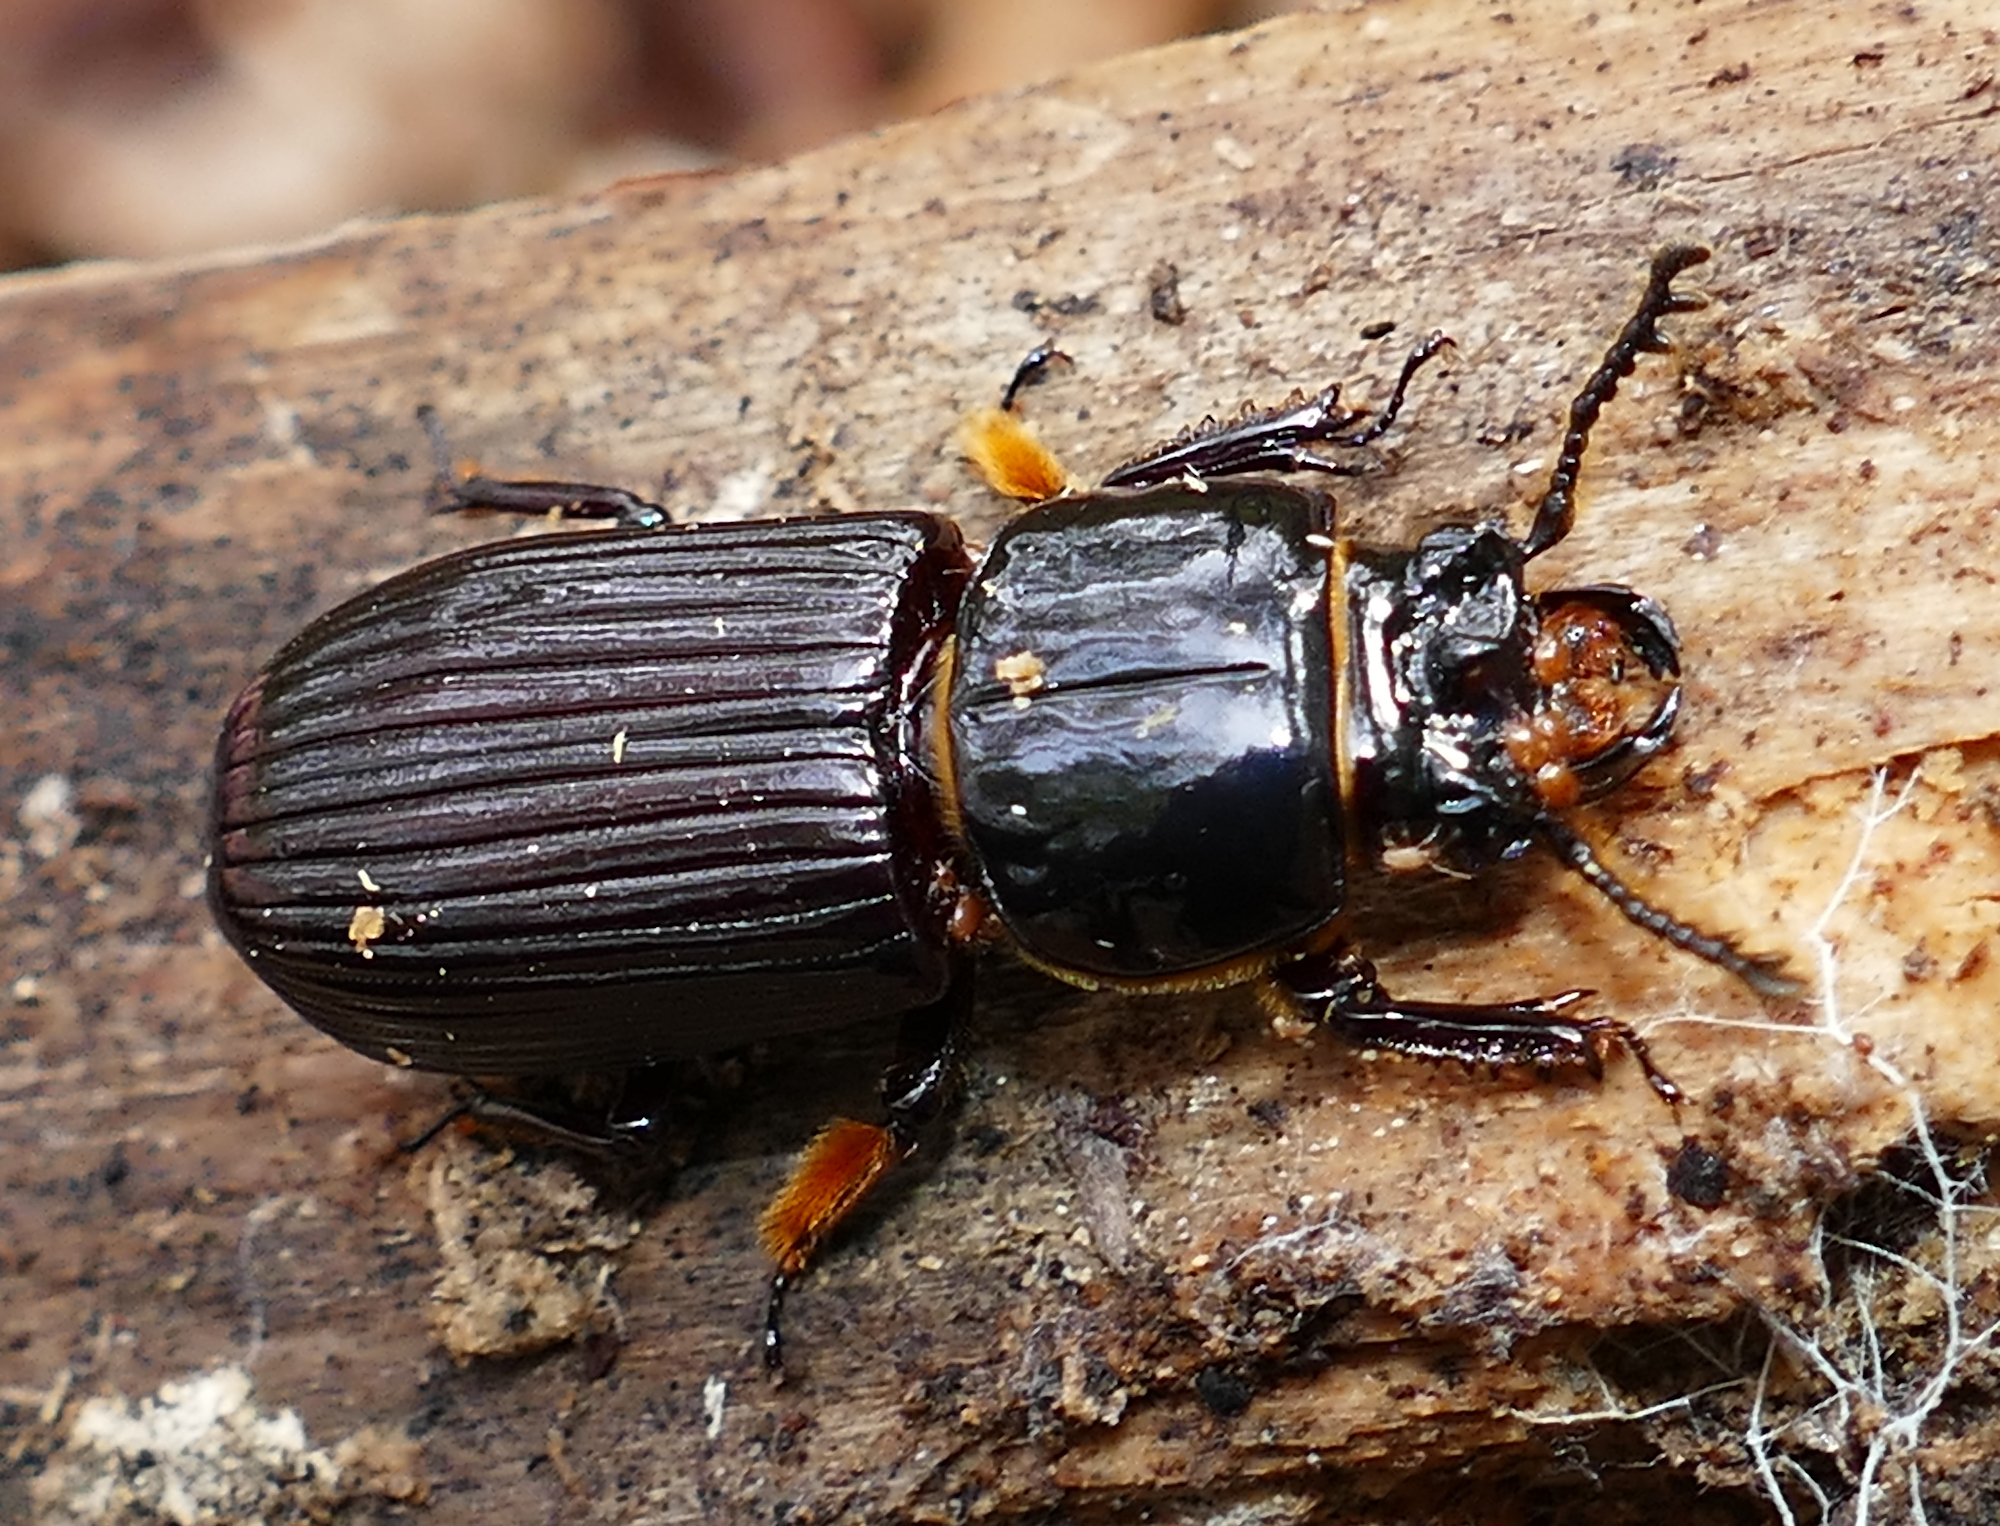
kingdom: Animalia
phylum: Arthropoda
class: Insecta
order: Coleoptera
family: Passalidae
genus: Odontotaenius
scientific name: Odontotaenius disjunctus
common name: Patent leather beetle
